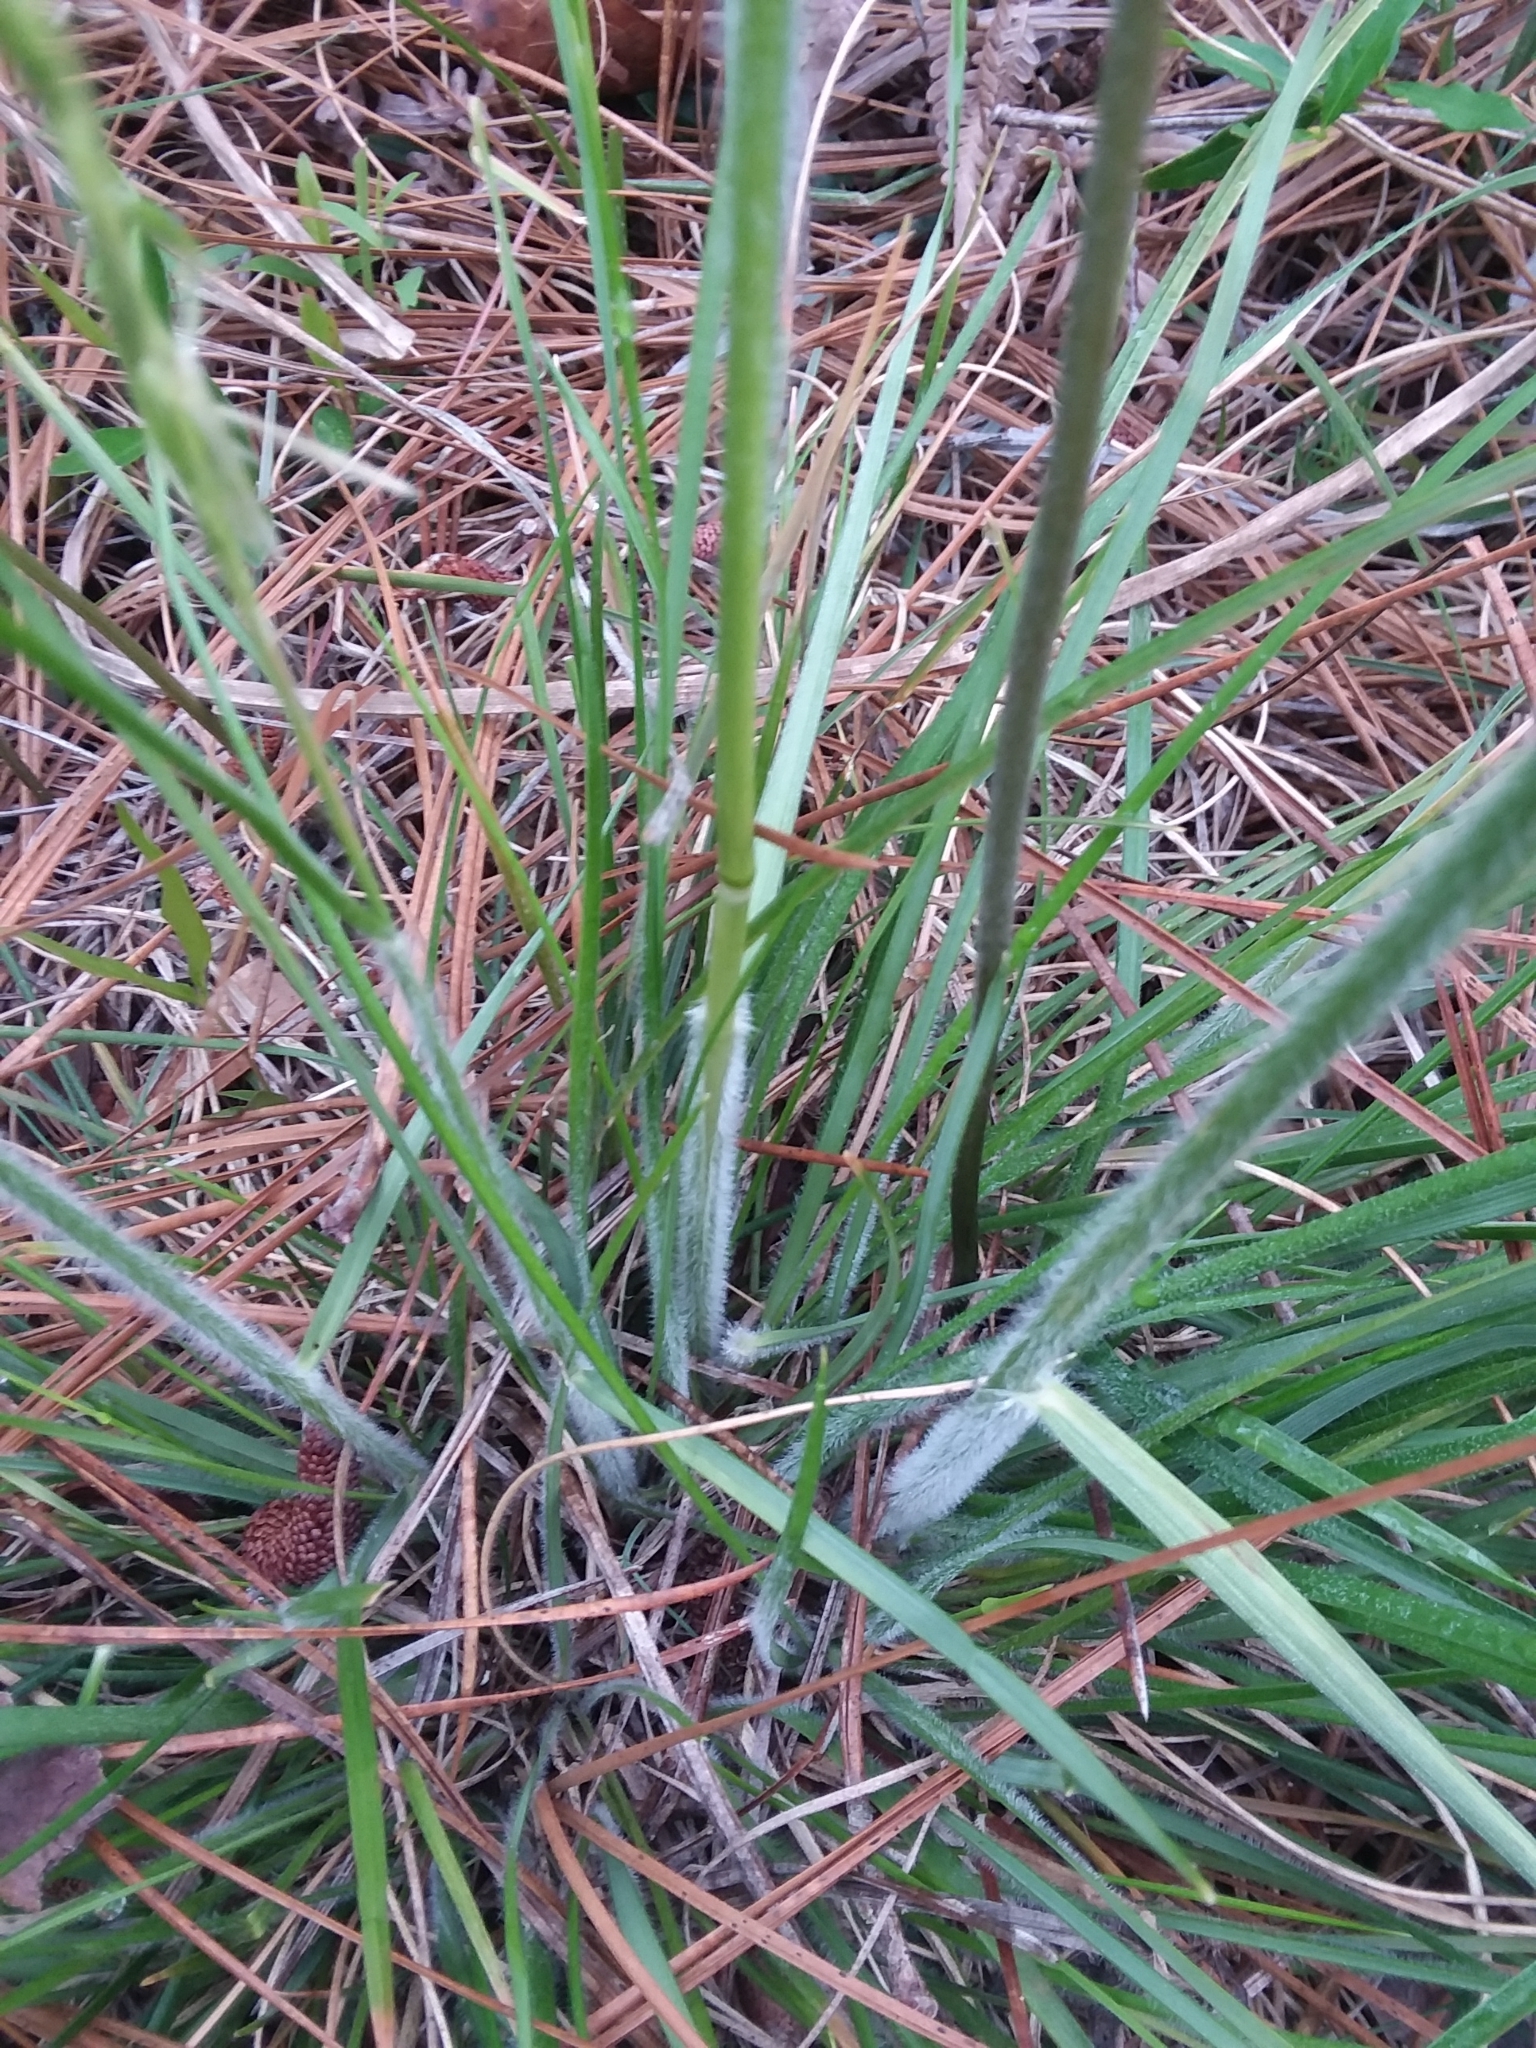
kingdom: Plantae
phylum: Tracheophyta
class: Liliopsida
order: Poales
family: Poaceae
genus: Danthonia
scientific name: Danthonia sericea
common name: Downy danthonia
